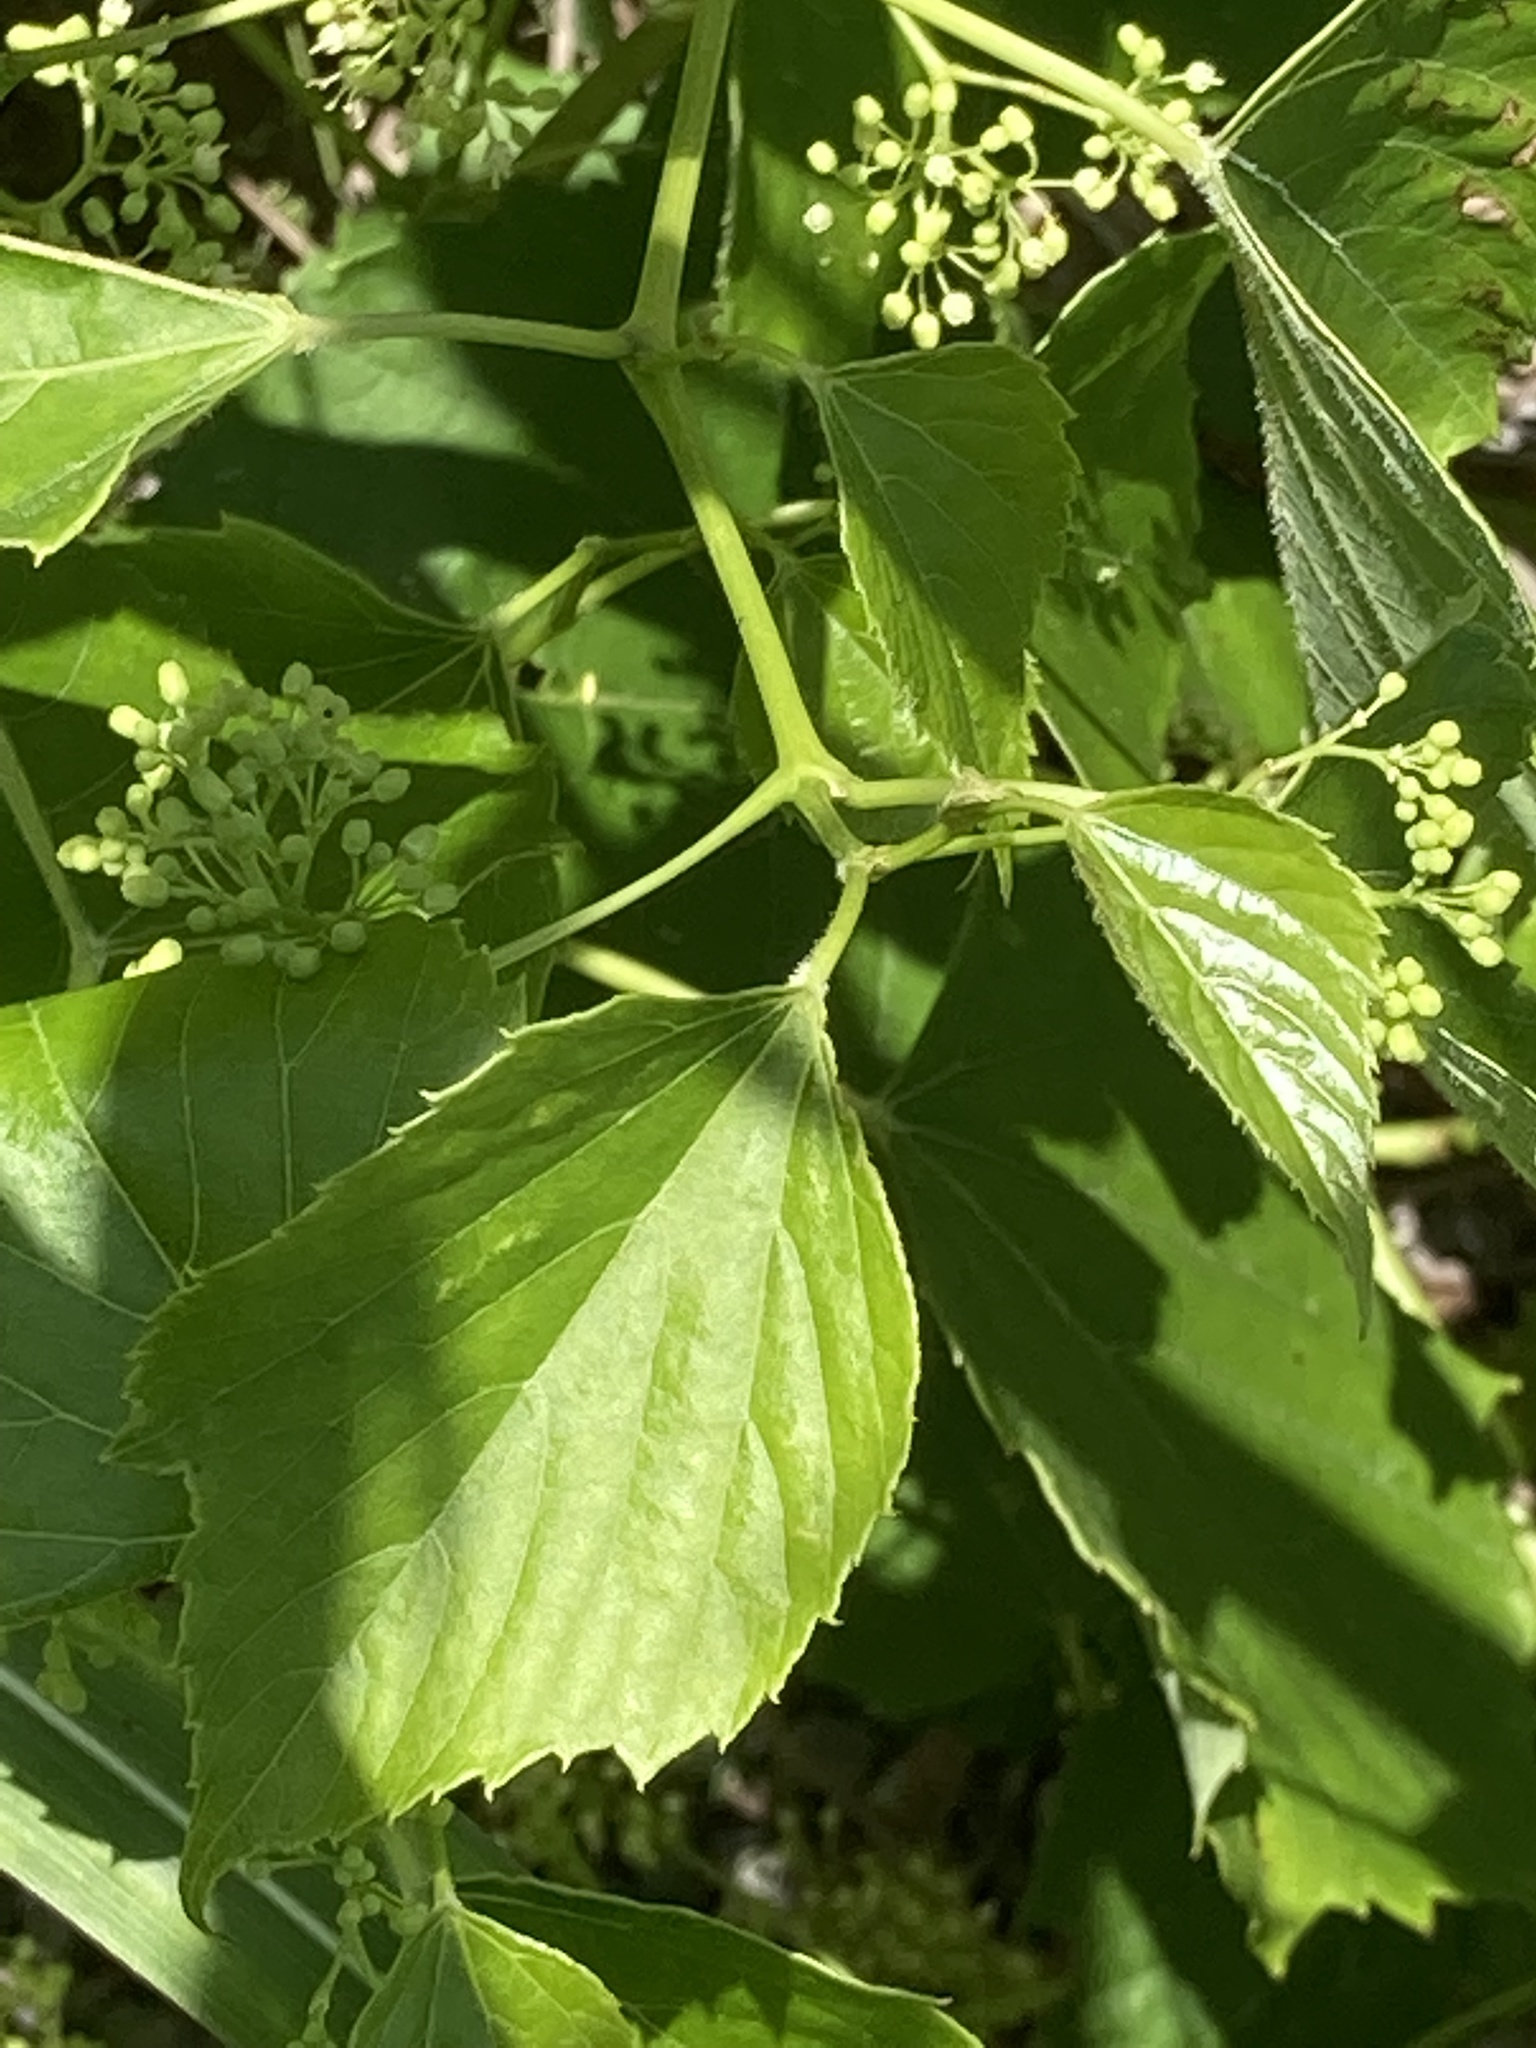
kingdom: Plantae
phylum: Tracheophyta
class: Magnoliopsida
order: Vitales
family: Vitaceae
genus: Ampelopsis
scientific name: Ampelopsis cordata
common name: Heart-leaf ampelopsis
